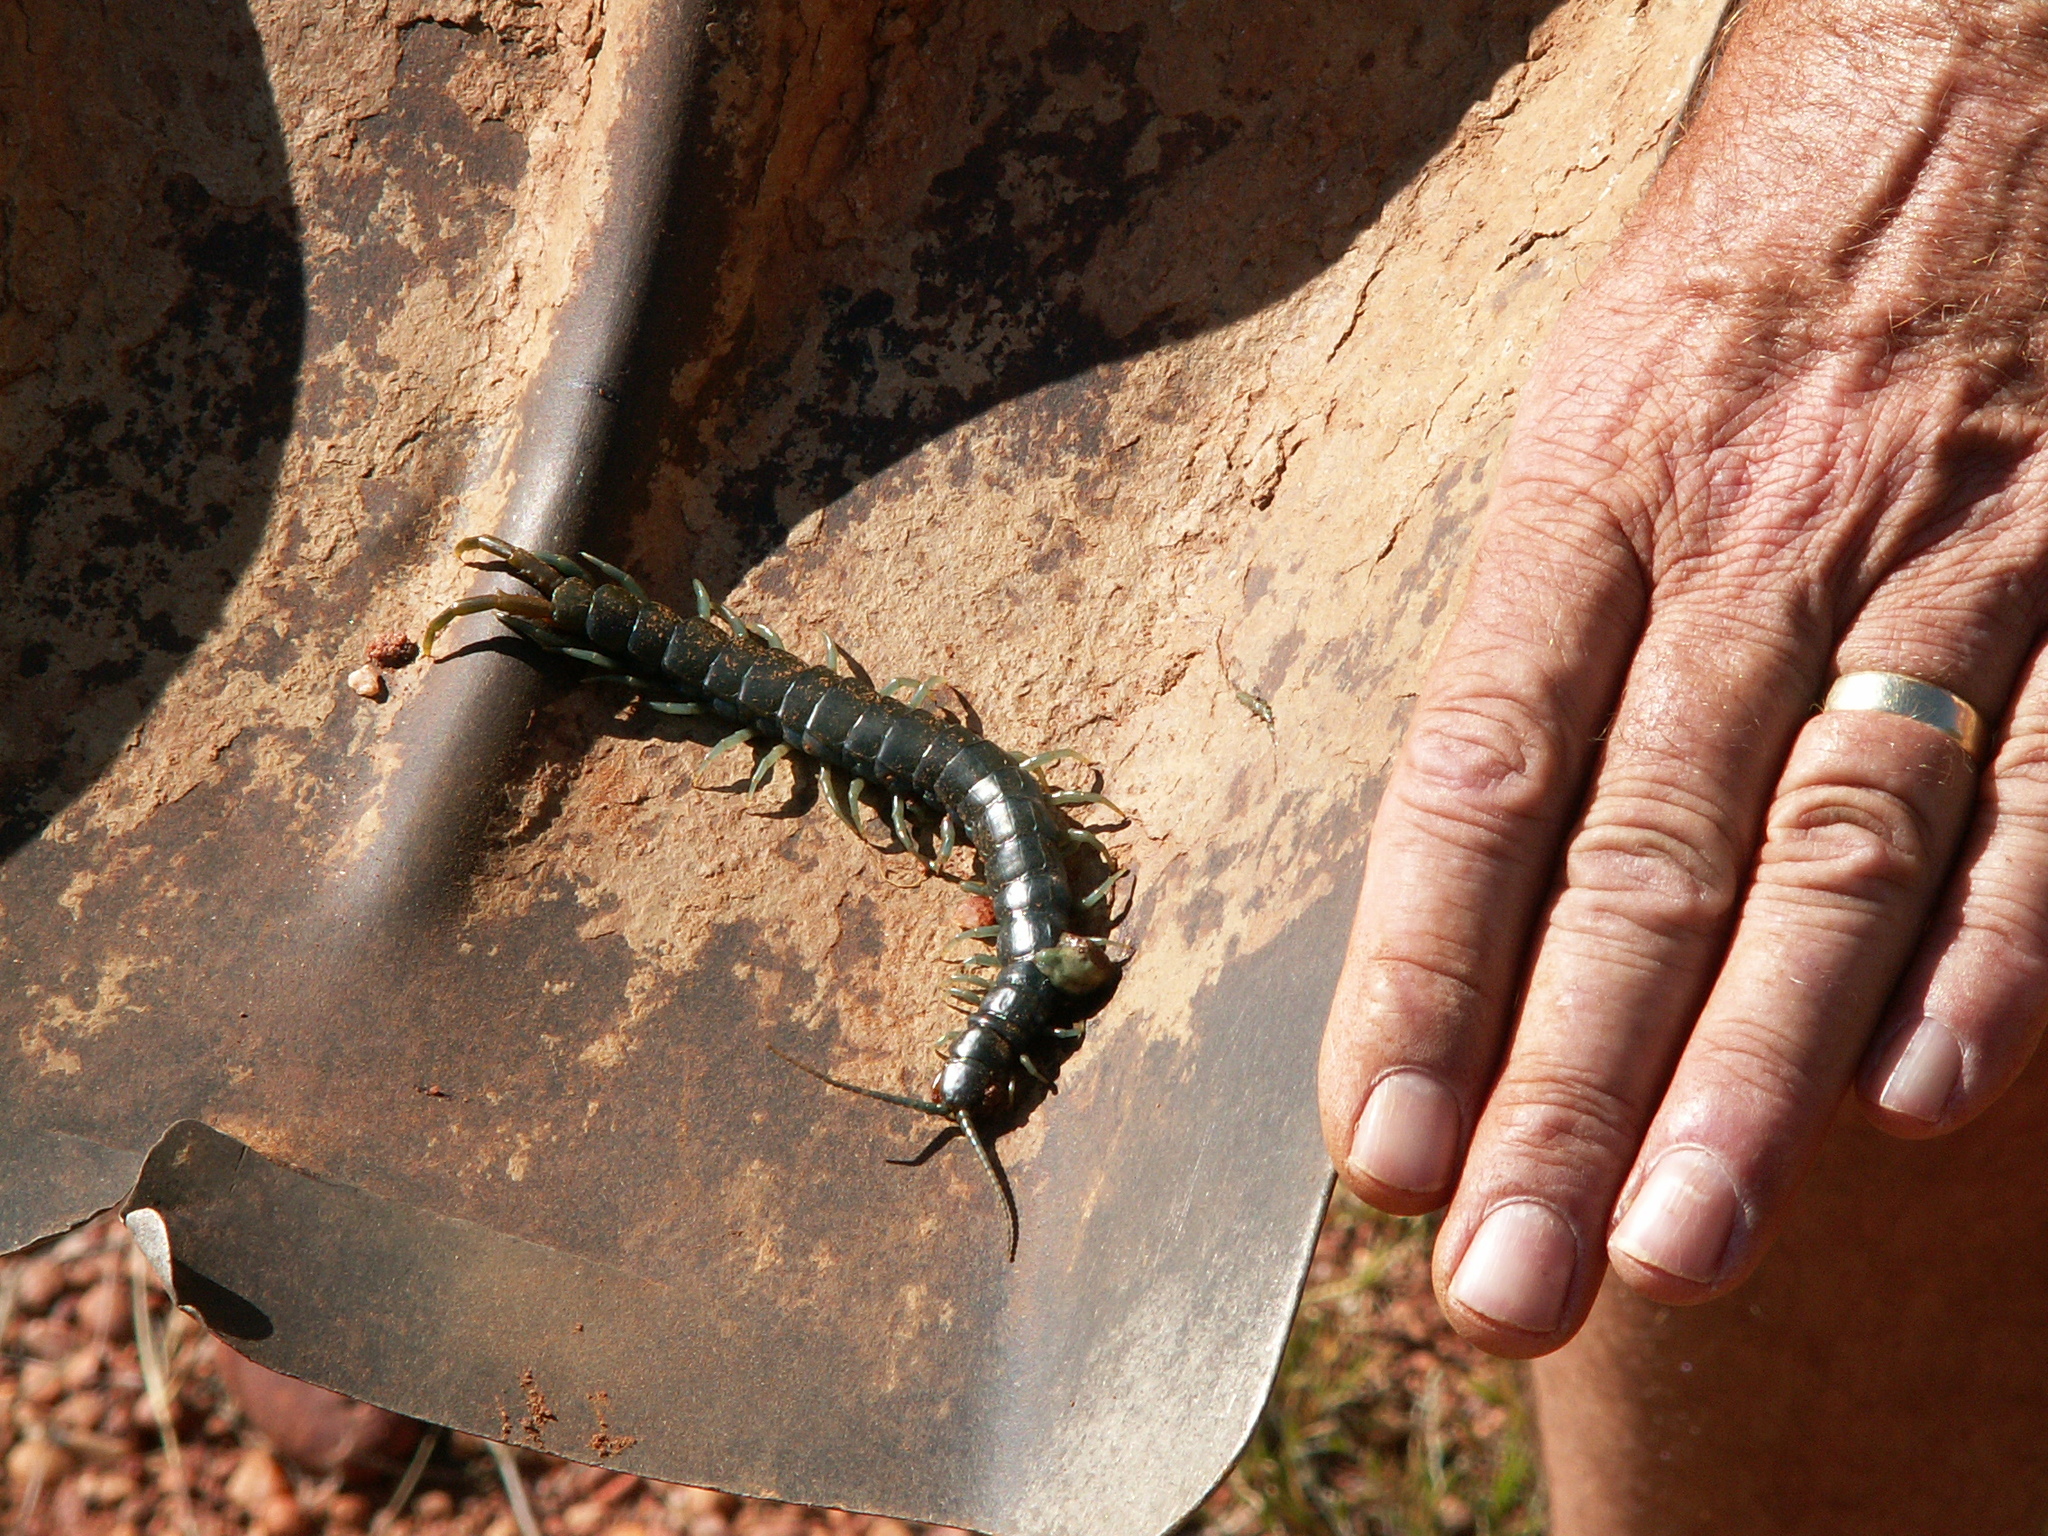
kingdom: Animalia
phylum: Arthropoda
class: Chilopoda
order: Scolopendromorpha
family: Scolopendridae
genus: Ethmostigmus
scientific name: Ethmostigmus trigonopodus
